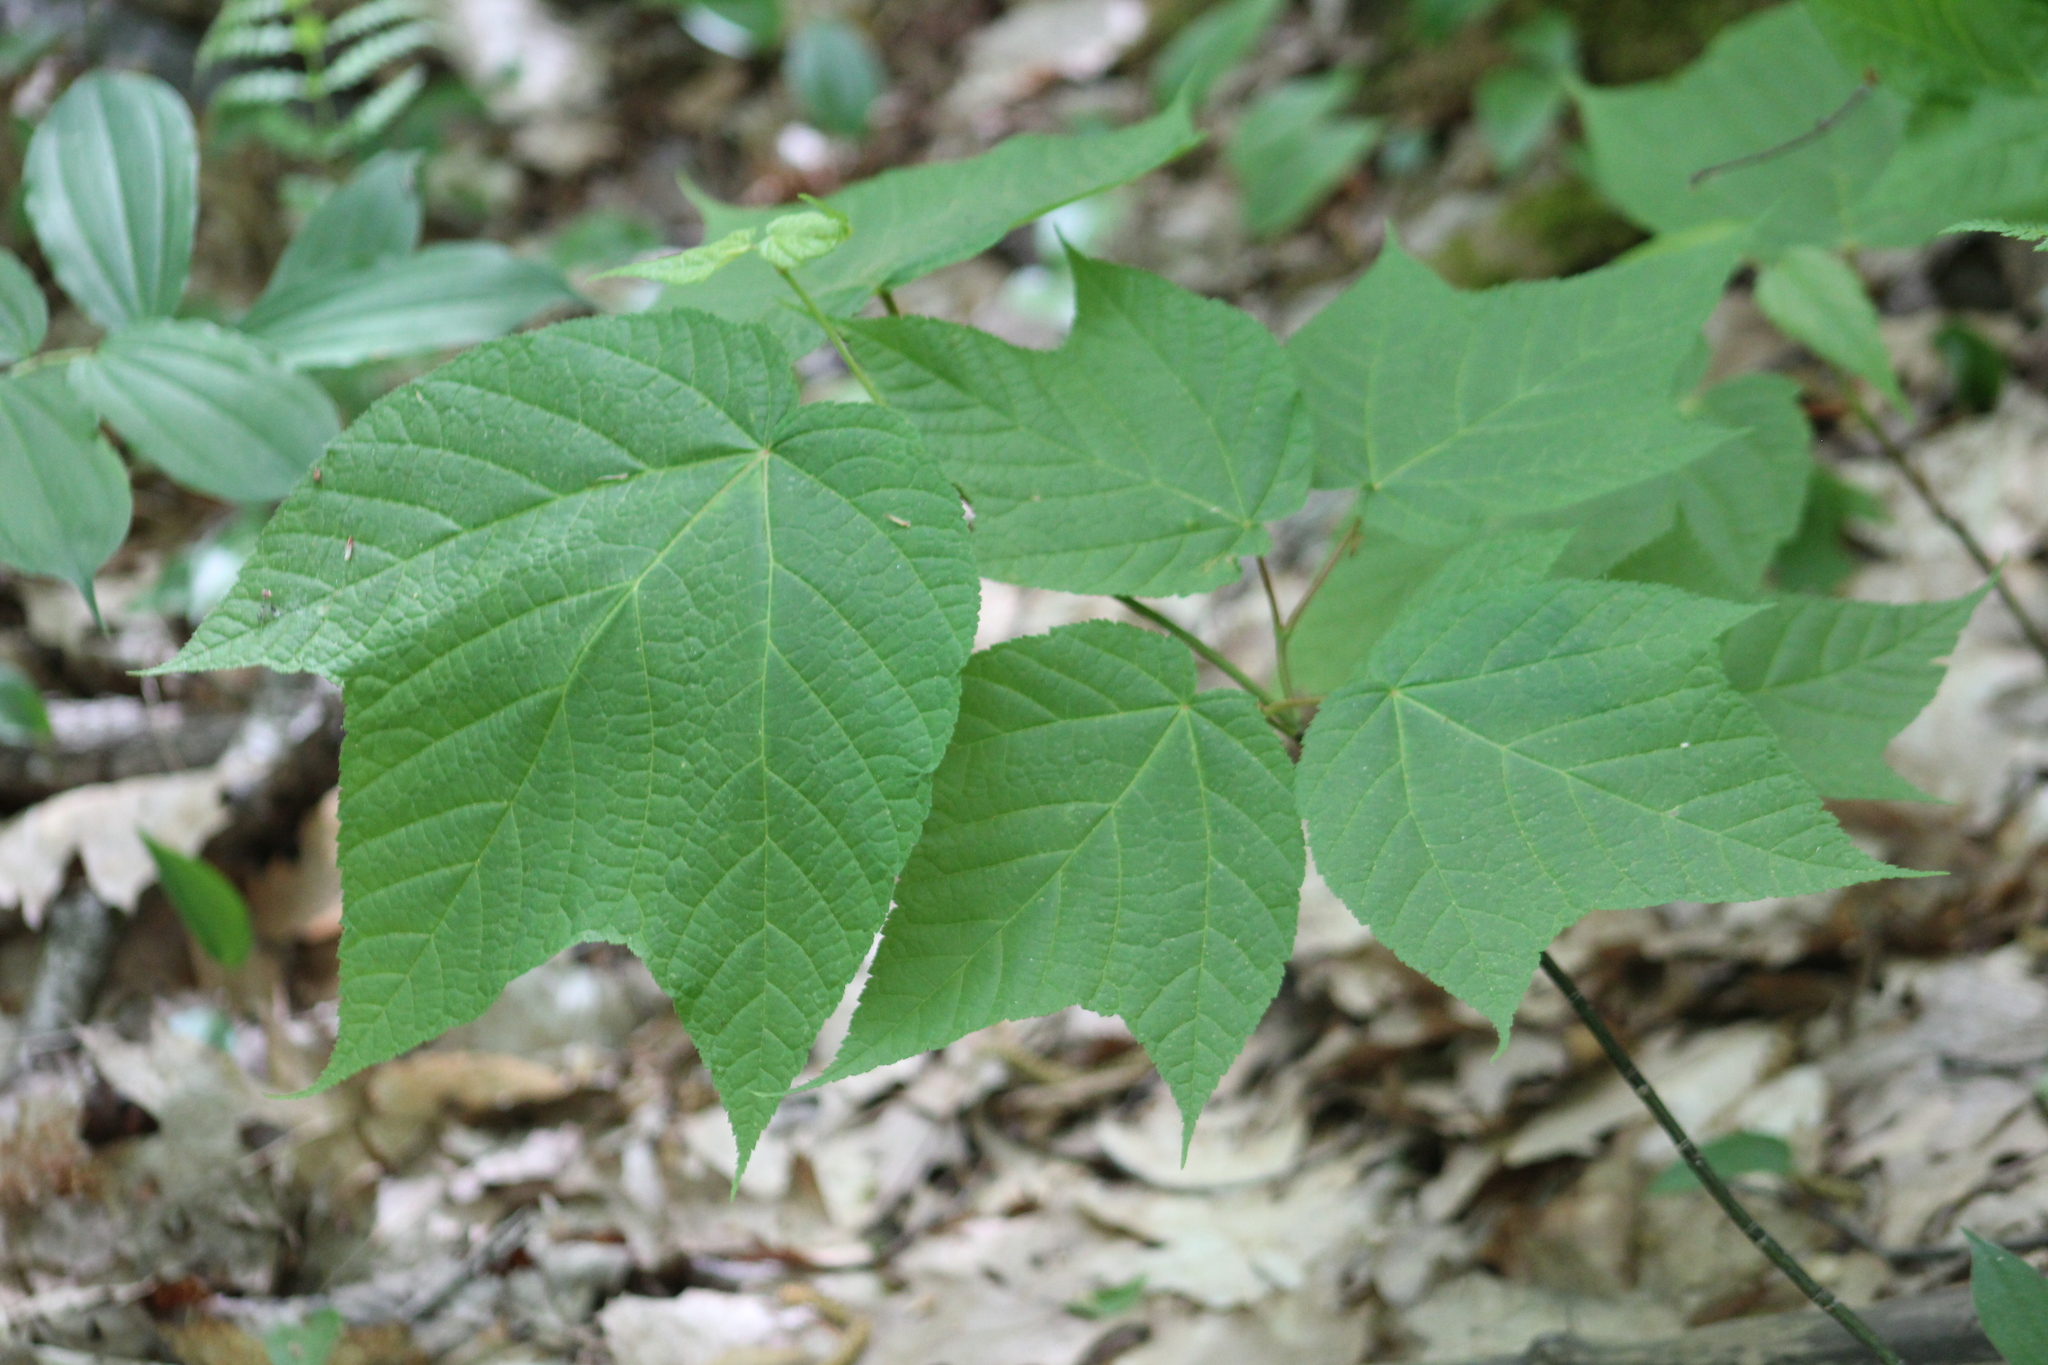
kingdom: Plantae
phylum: Tracheophyta
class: Magnoliopsida
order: Sapindales
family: Sapindaceae
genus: Acer
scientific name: Acer pensylvanicum
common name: Moosewood
